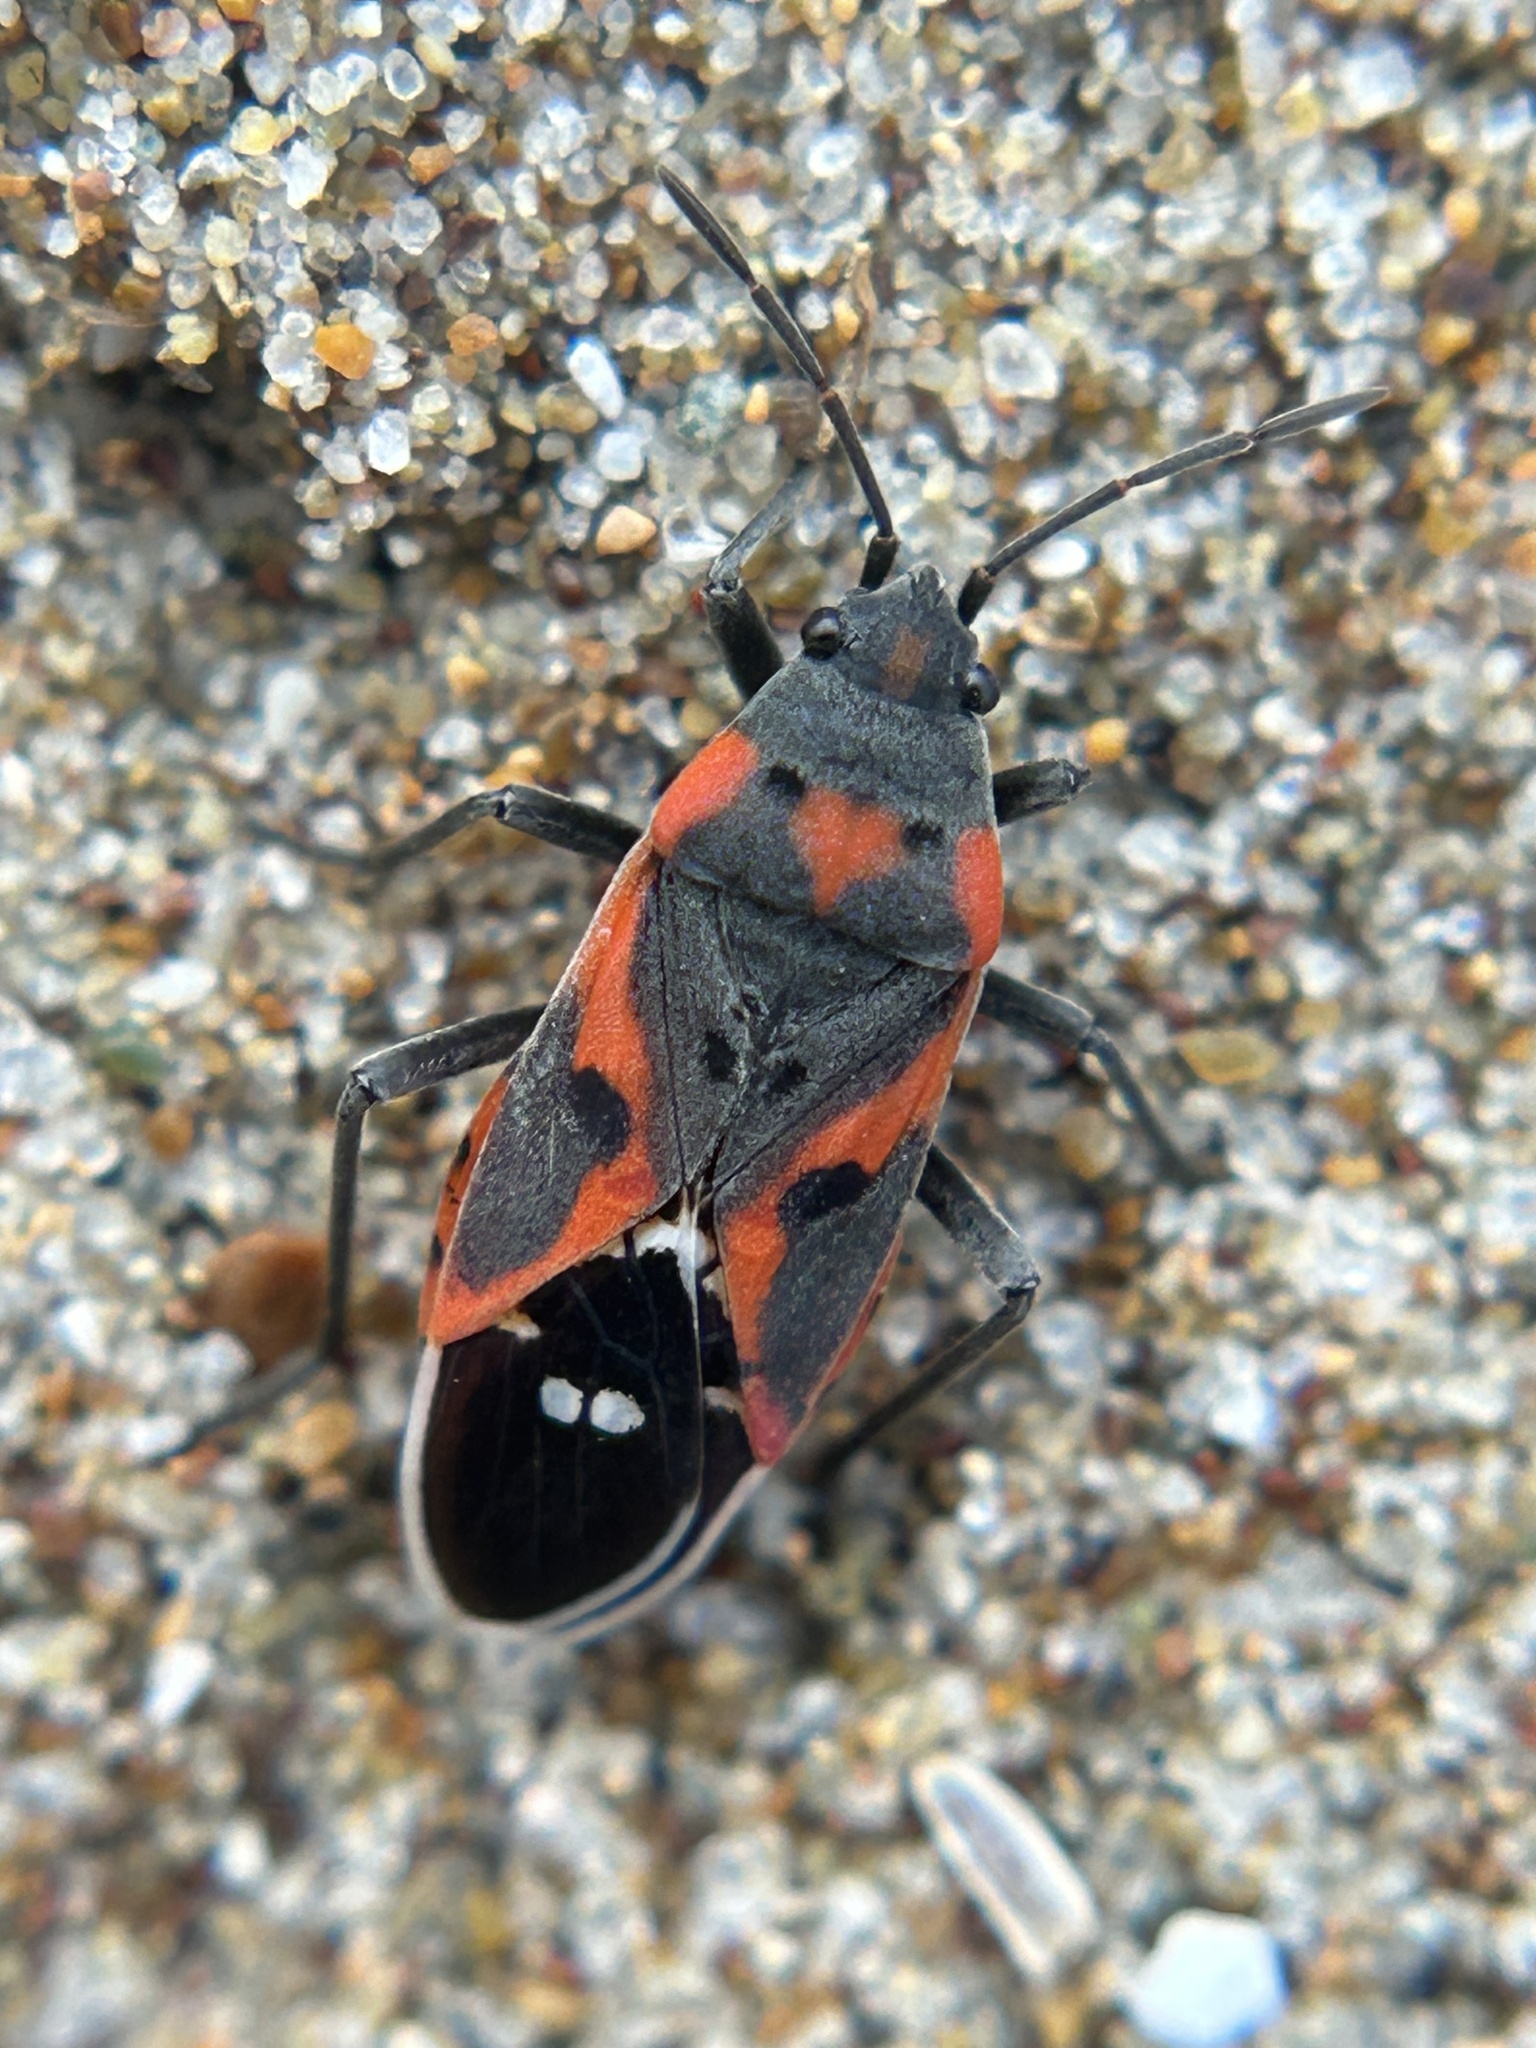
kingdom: Animalia
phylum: Arthropoda
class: Insecta
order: Hemiptera
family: Lygaeidae
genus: Lygaeus
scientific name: Lygaeus kalmii
